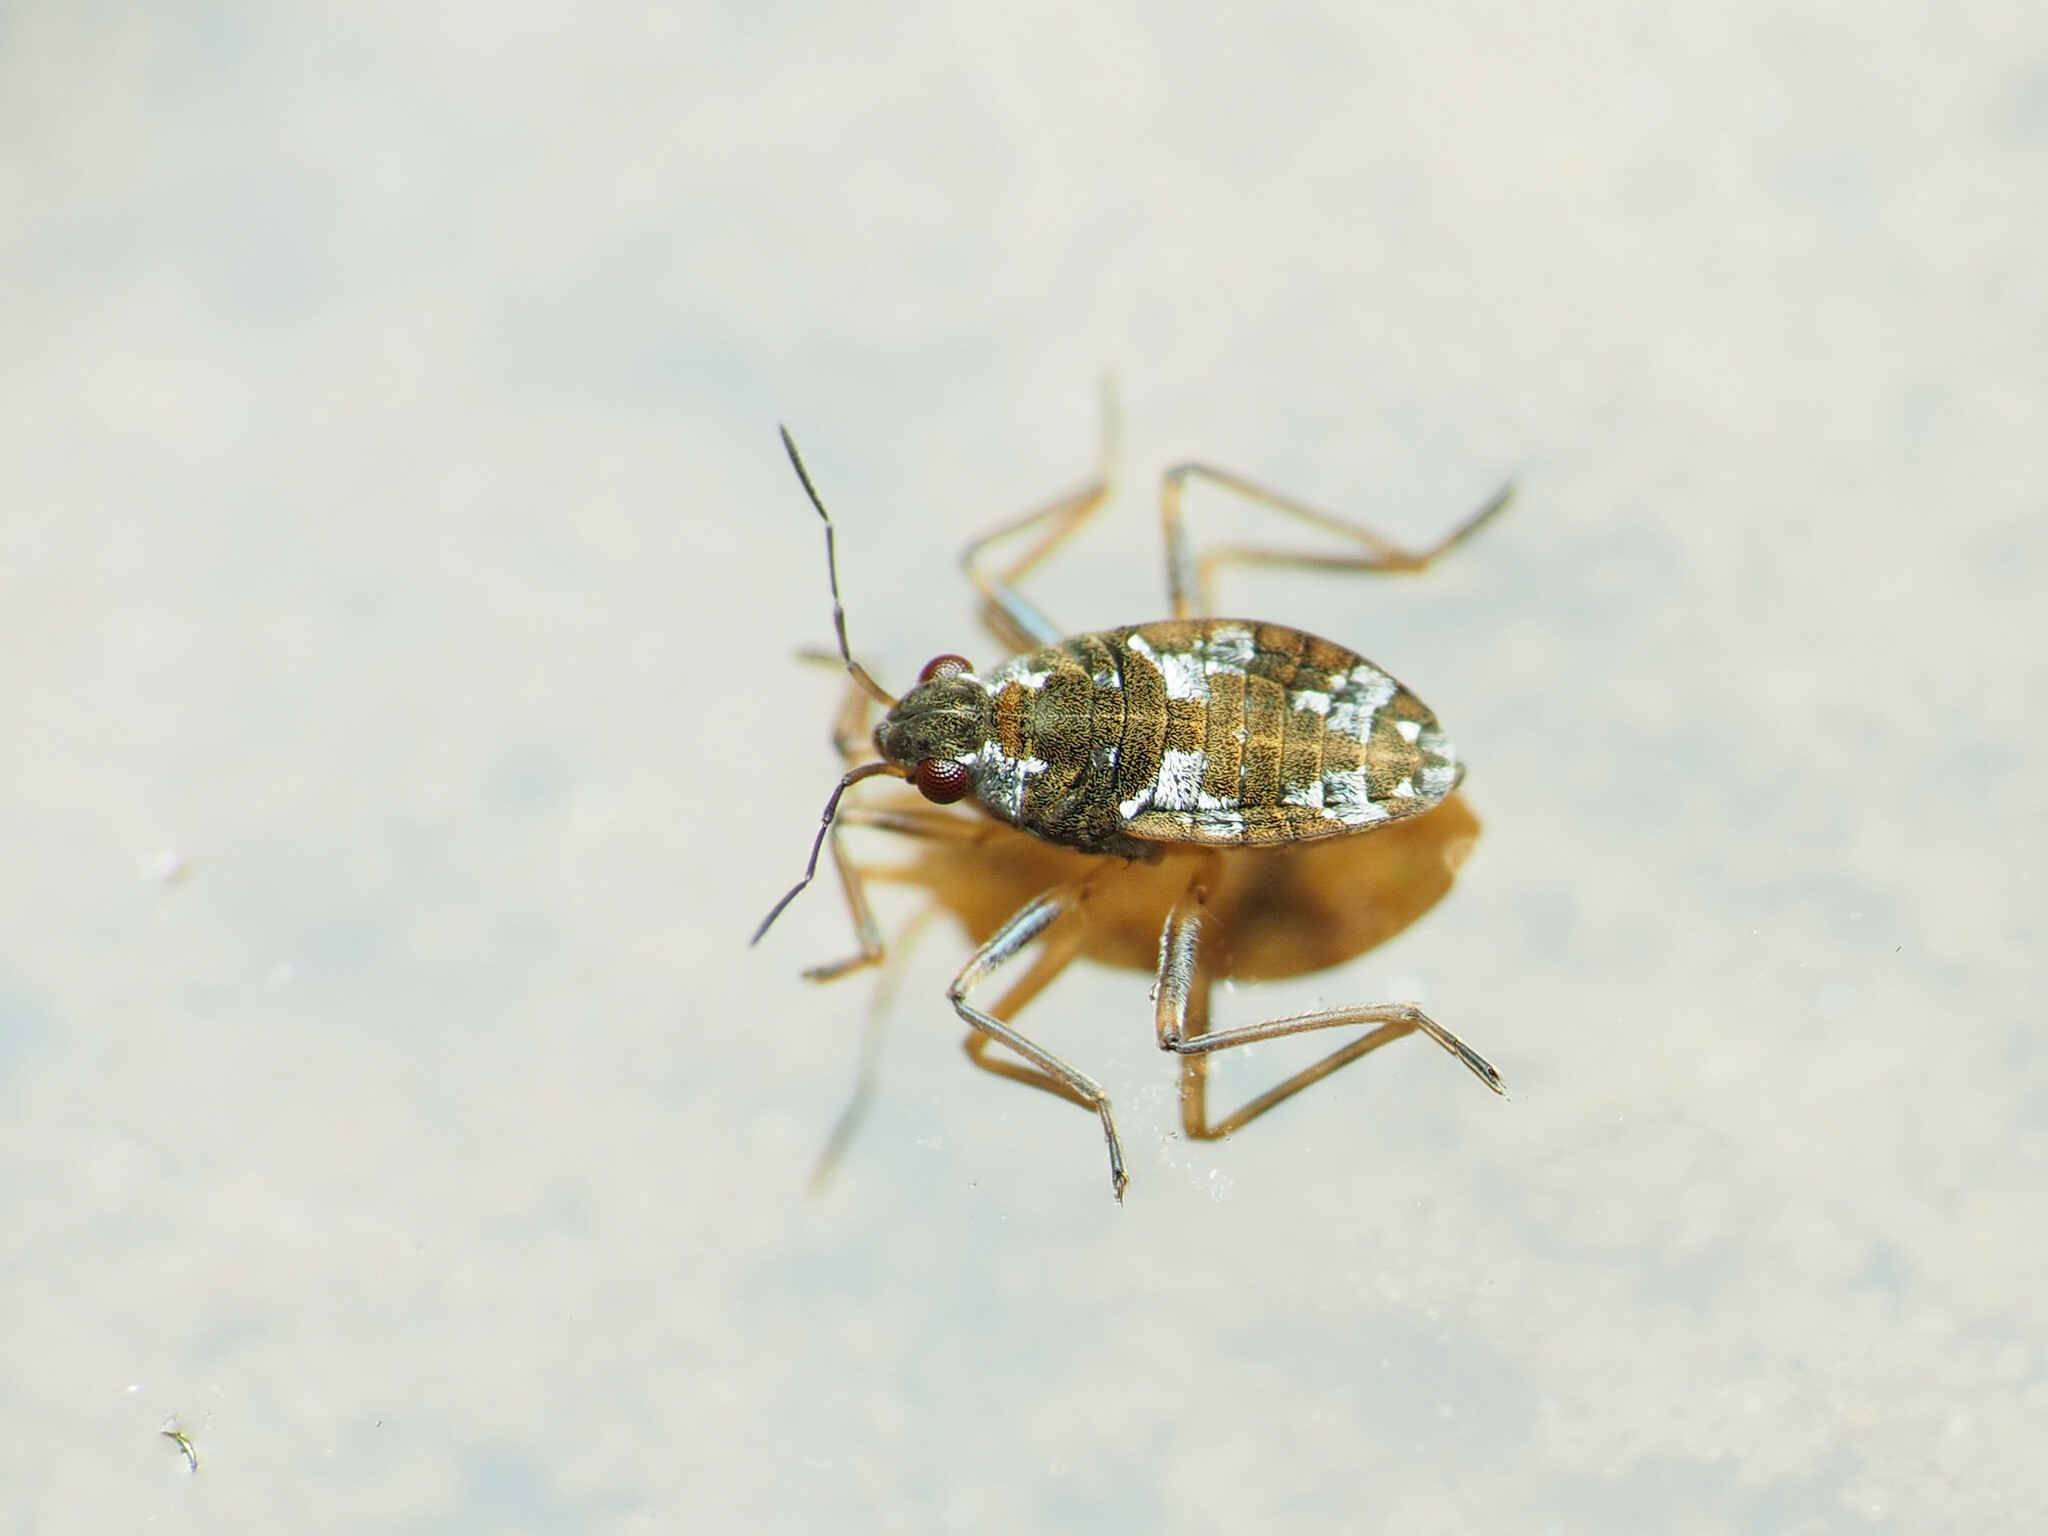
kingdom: Animalia
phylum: Arthropoda
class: Insecta
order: Hemiptera
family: Veliidae
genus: Microvelia
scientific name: Microvelia americana
